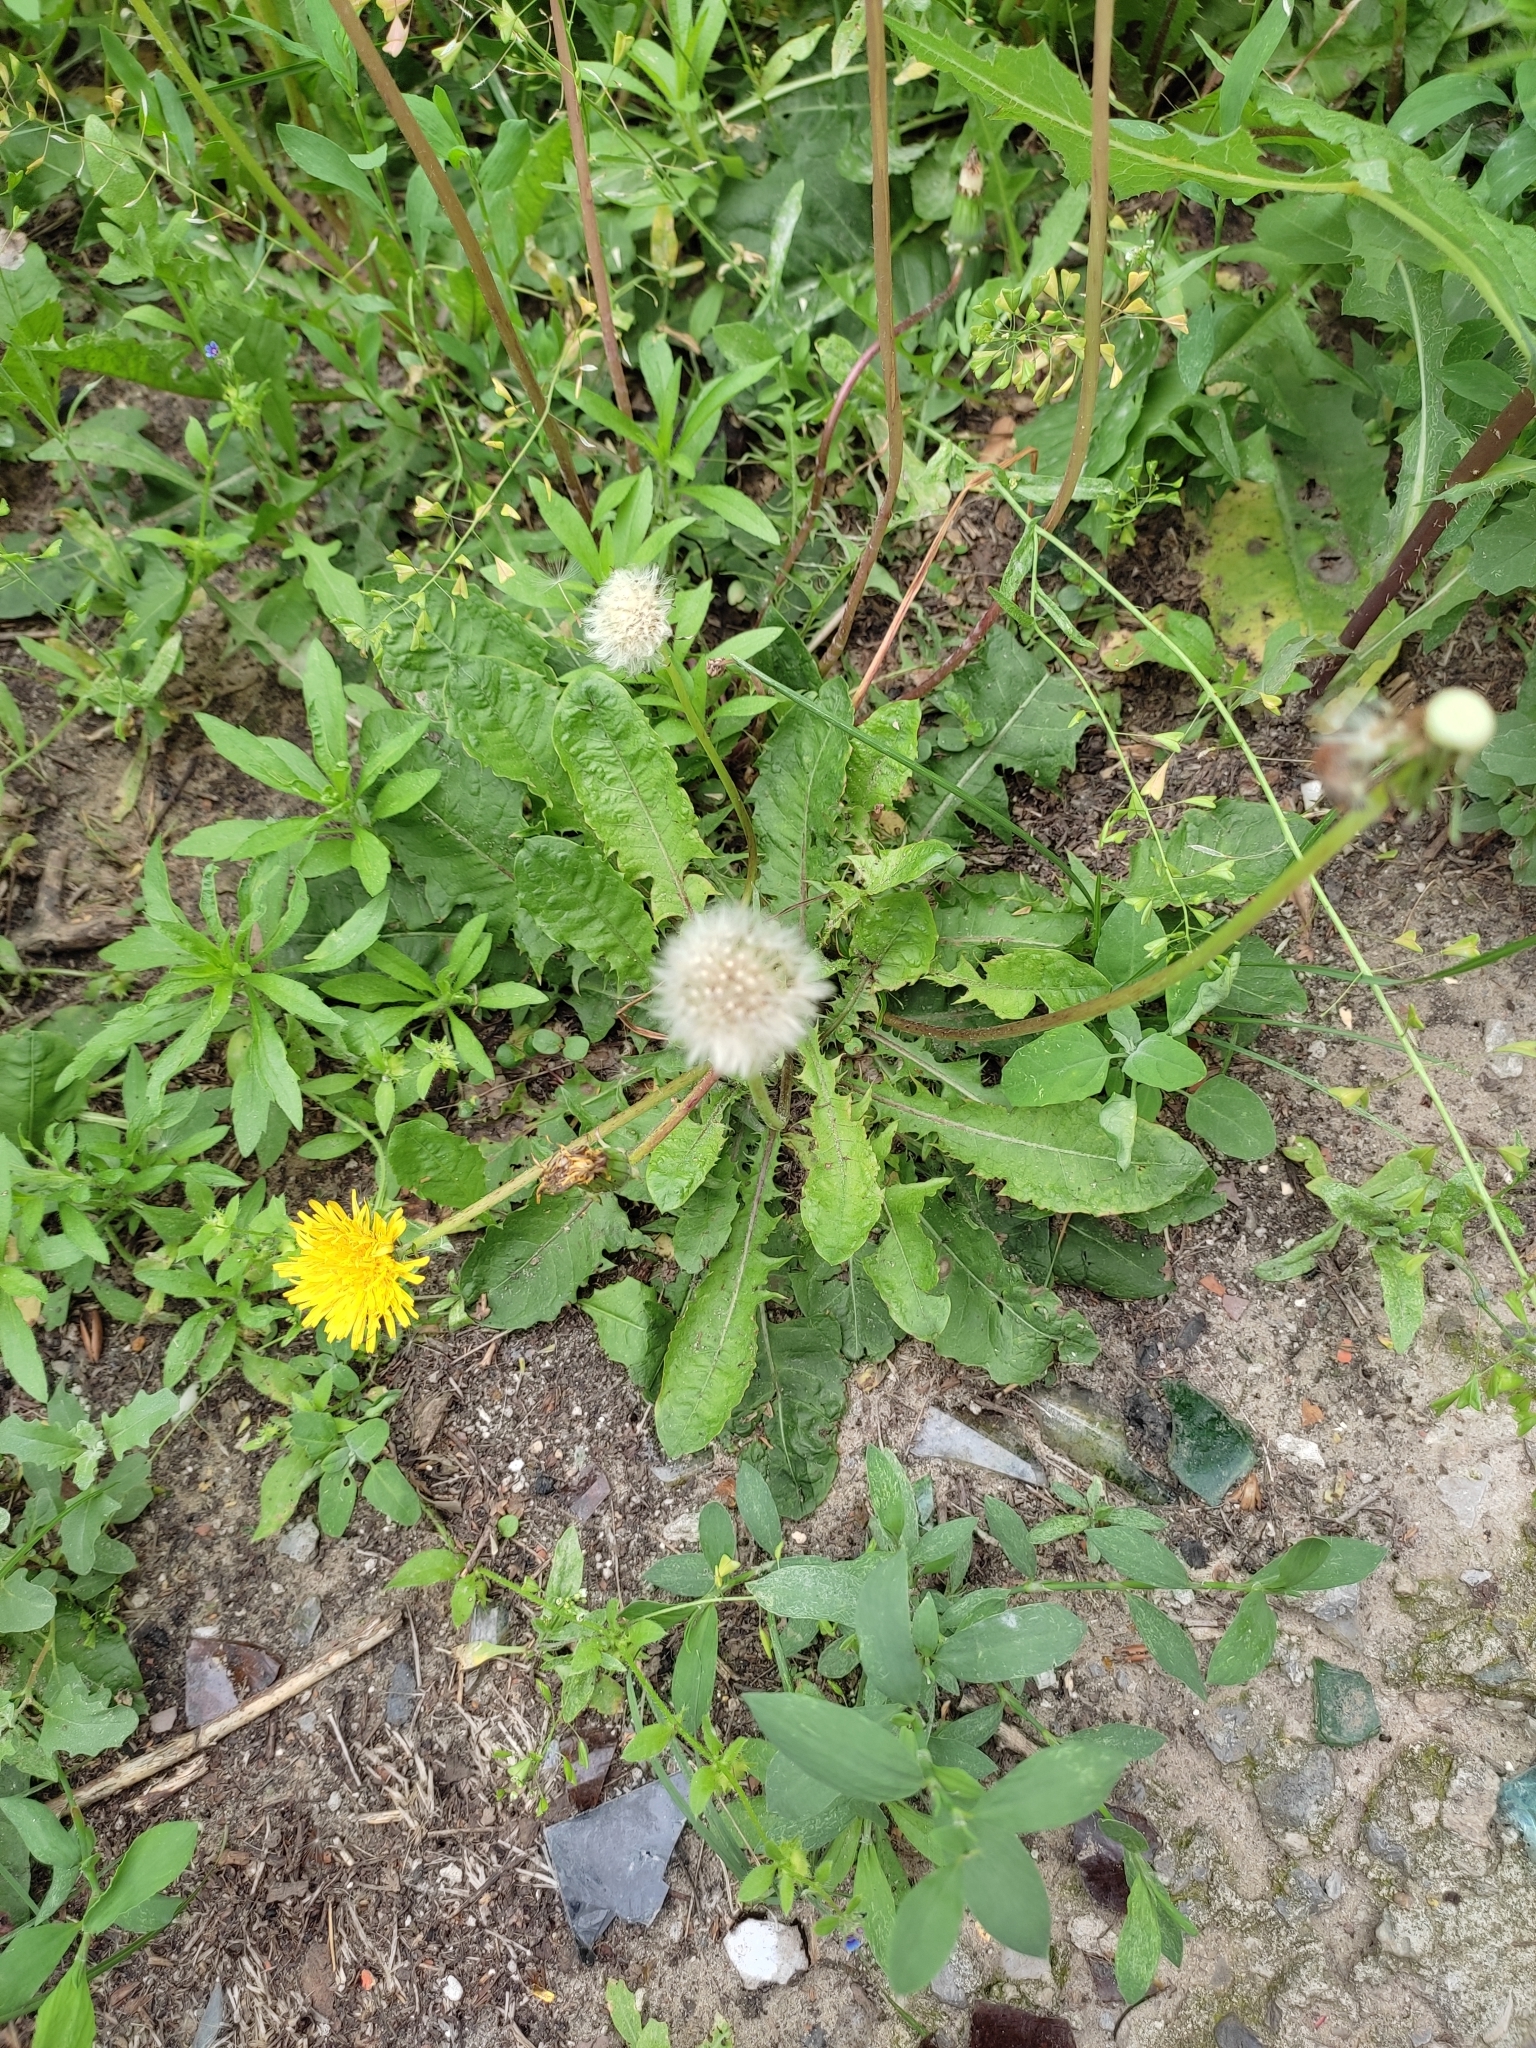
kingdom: Plantae
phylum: Tracheophyta
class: Magnoliopsida
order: Asterales
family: Asteraceae
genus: Taraxacum
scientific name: Taraxacum officinale
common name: Common dandelion
